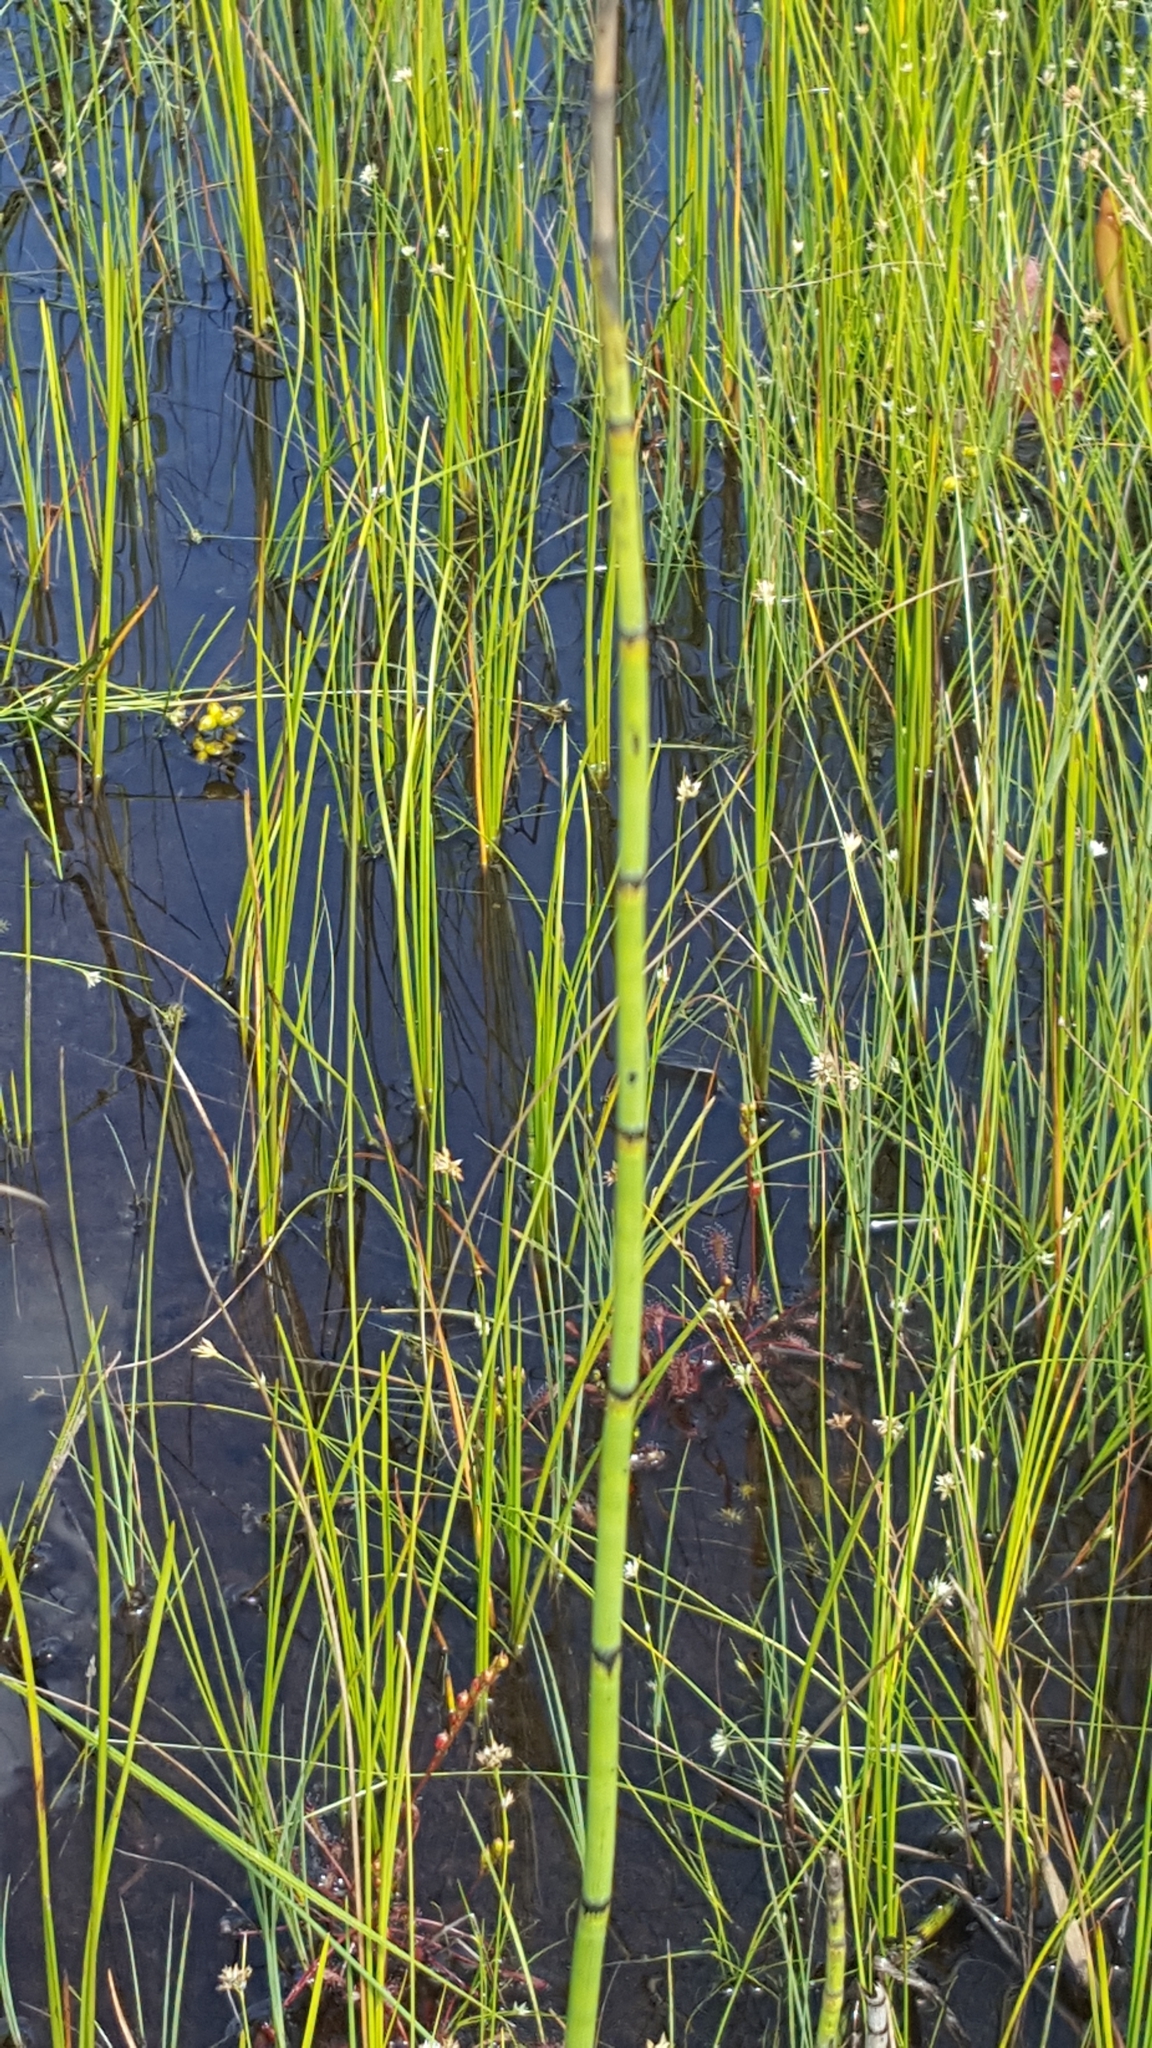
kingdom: Plantae
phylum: Tracheophyta
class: Polypodiopsida
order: Equisetales
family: Equisetaceae
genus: Equisetum
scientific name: Equisetum fluviatile
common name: Water horsetail
